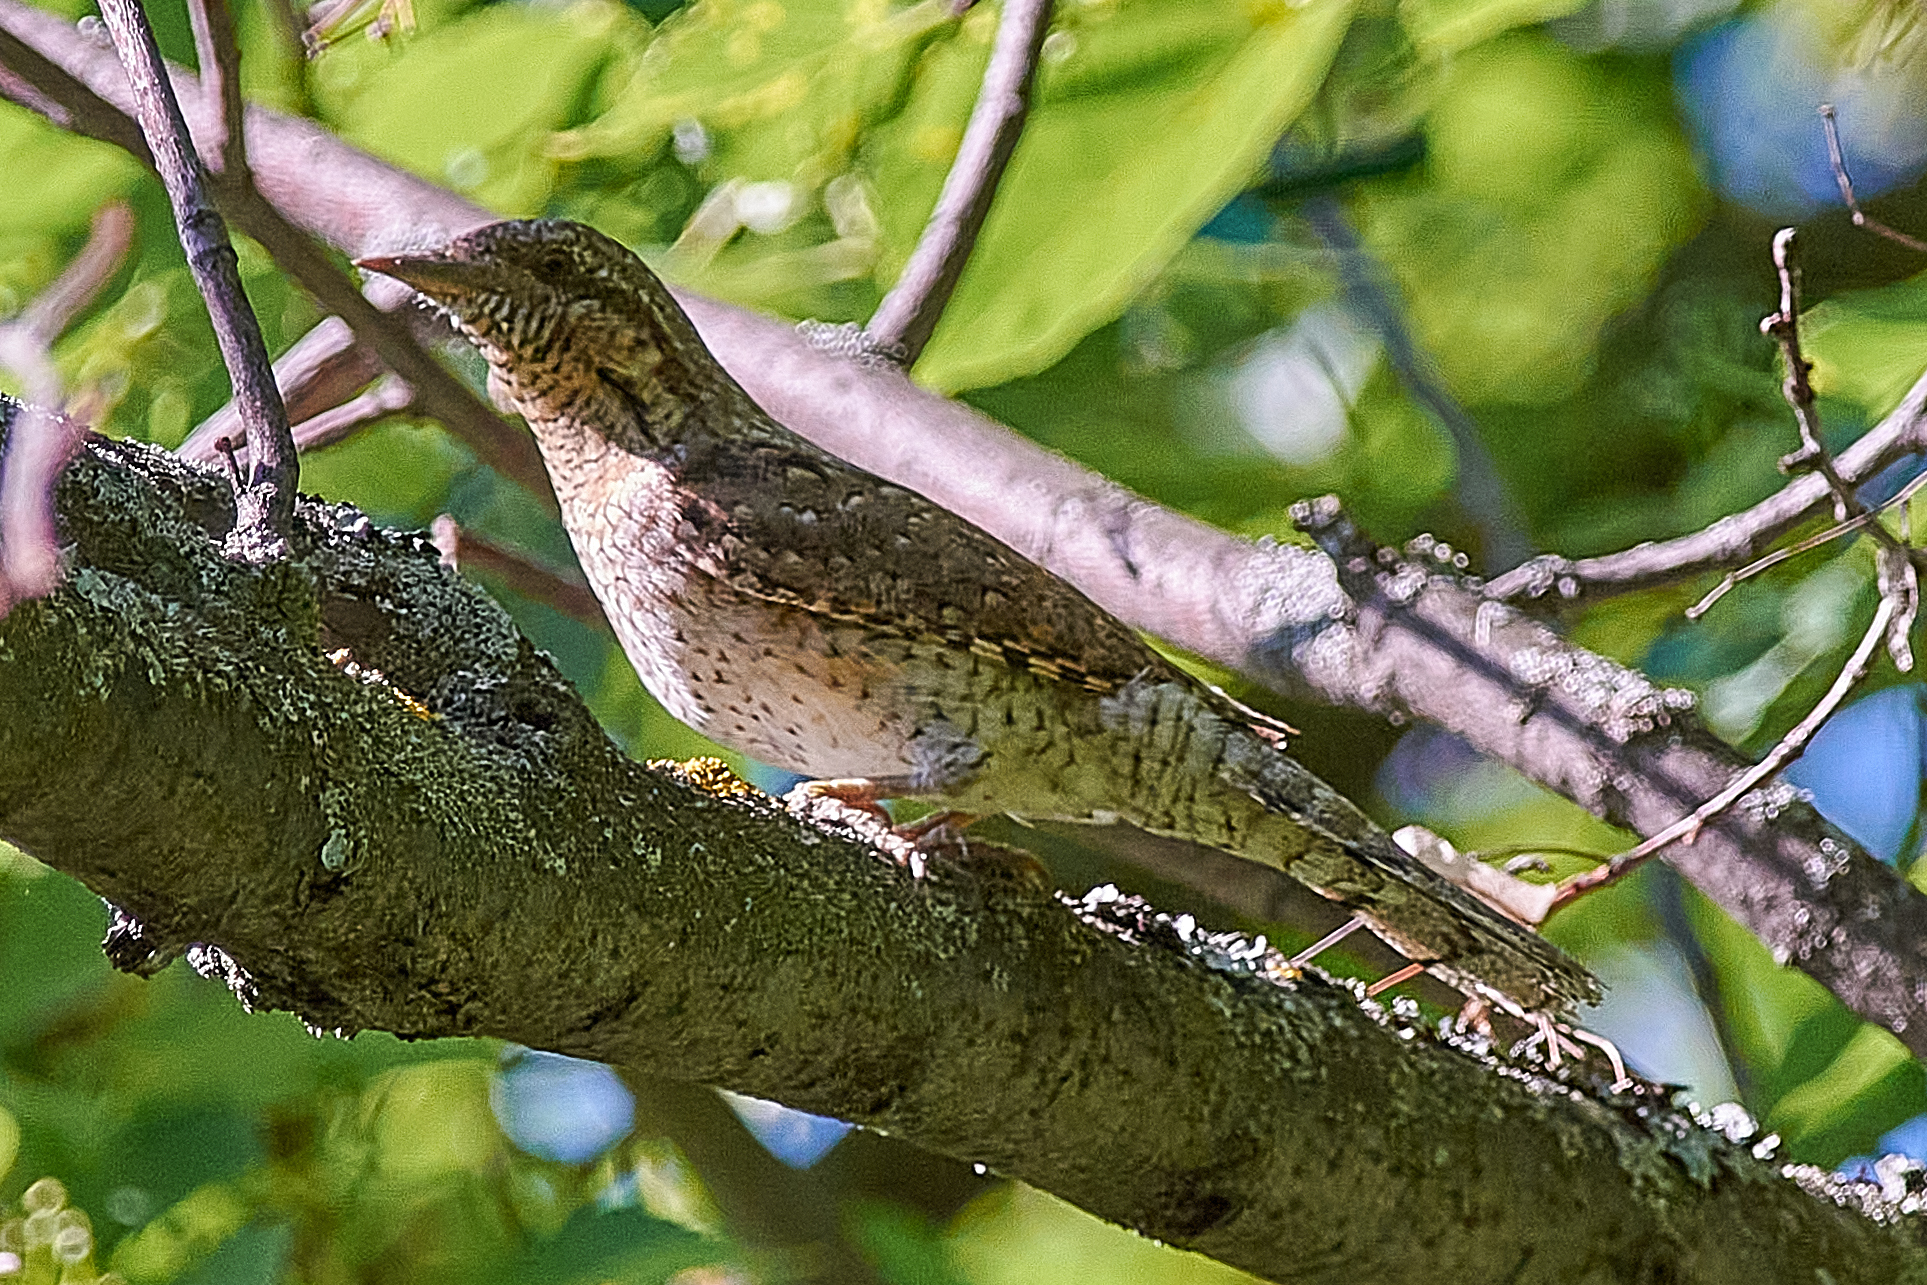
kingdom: Animalia
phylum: Chordata
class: Aves
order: Piciformes
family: Picidae
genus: Jynx
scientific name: Jynx torquilla
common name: Eurasian wryneck
